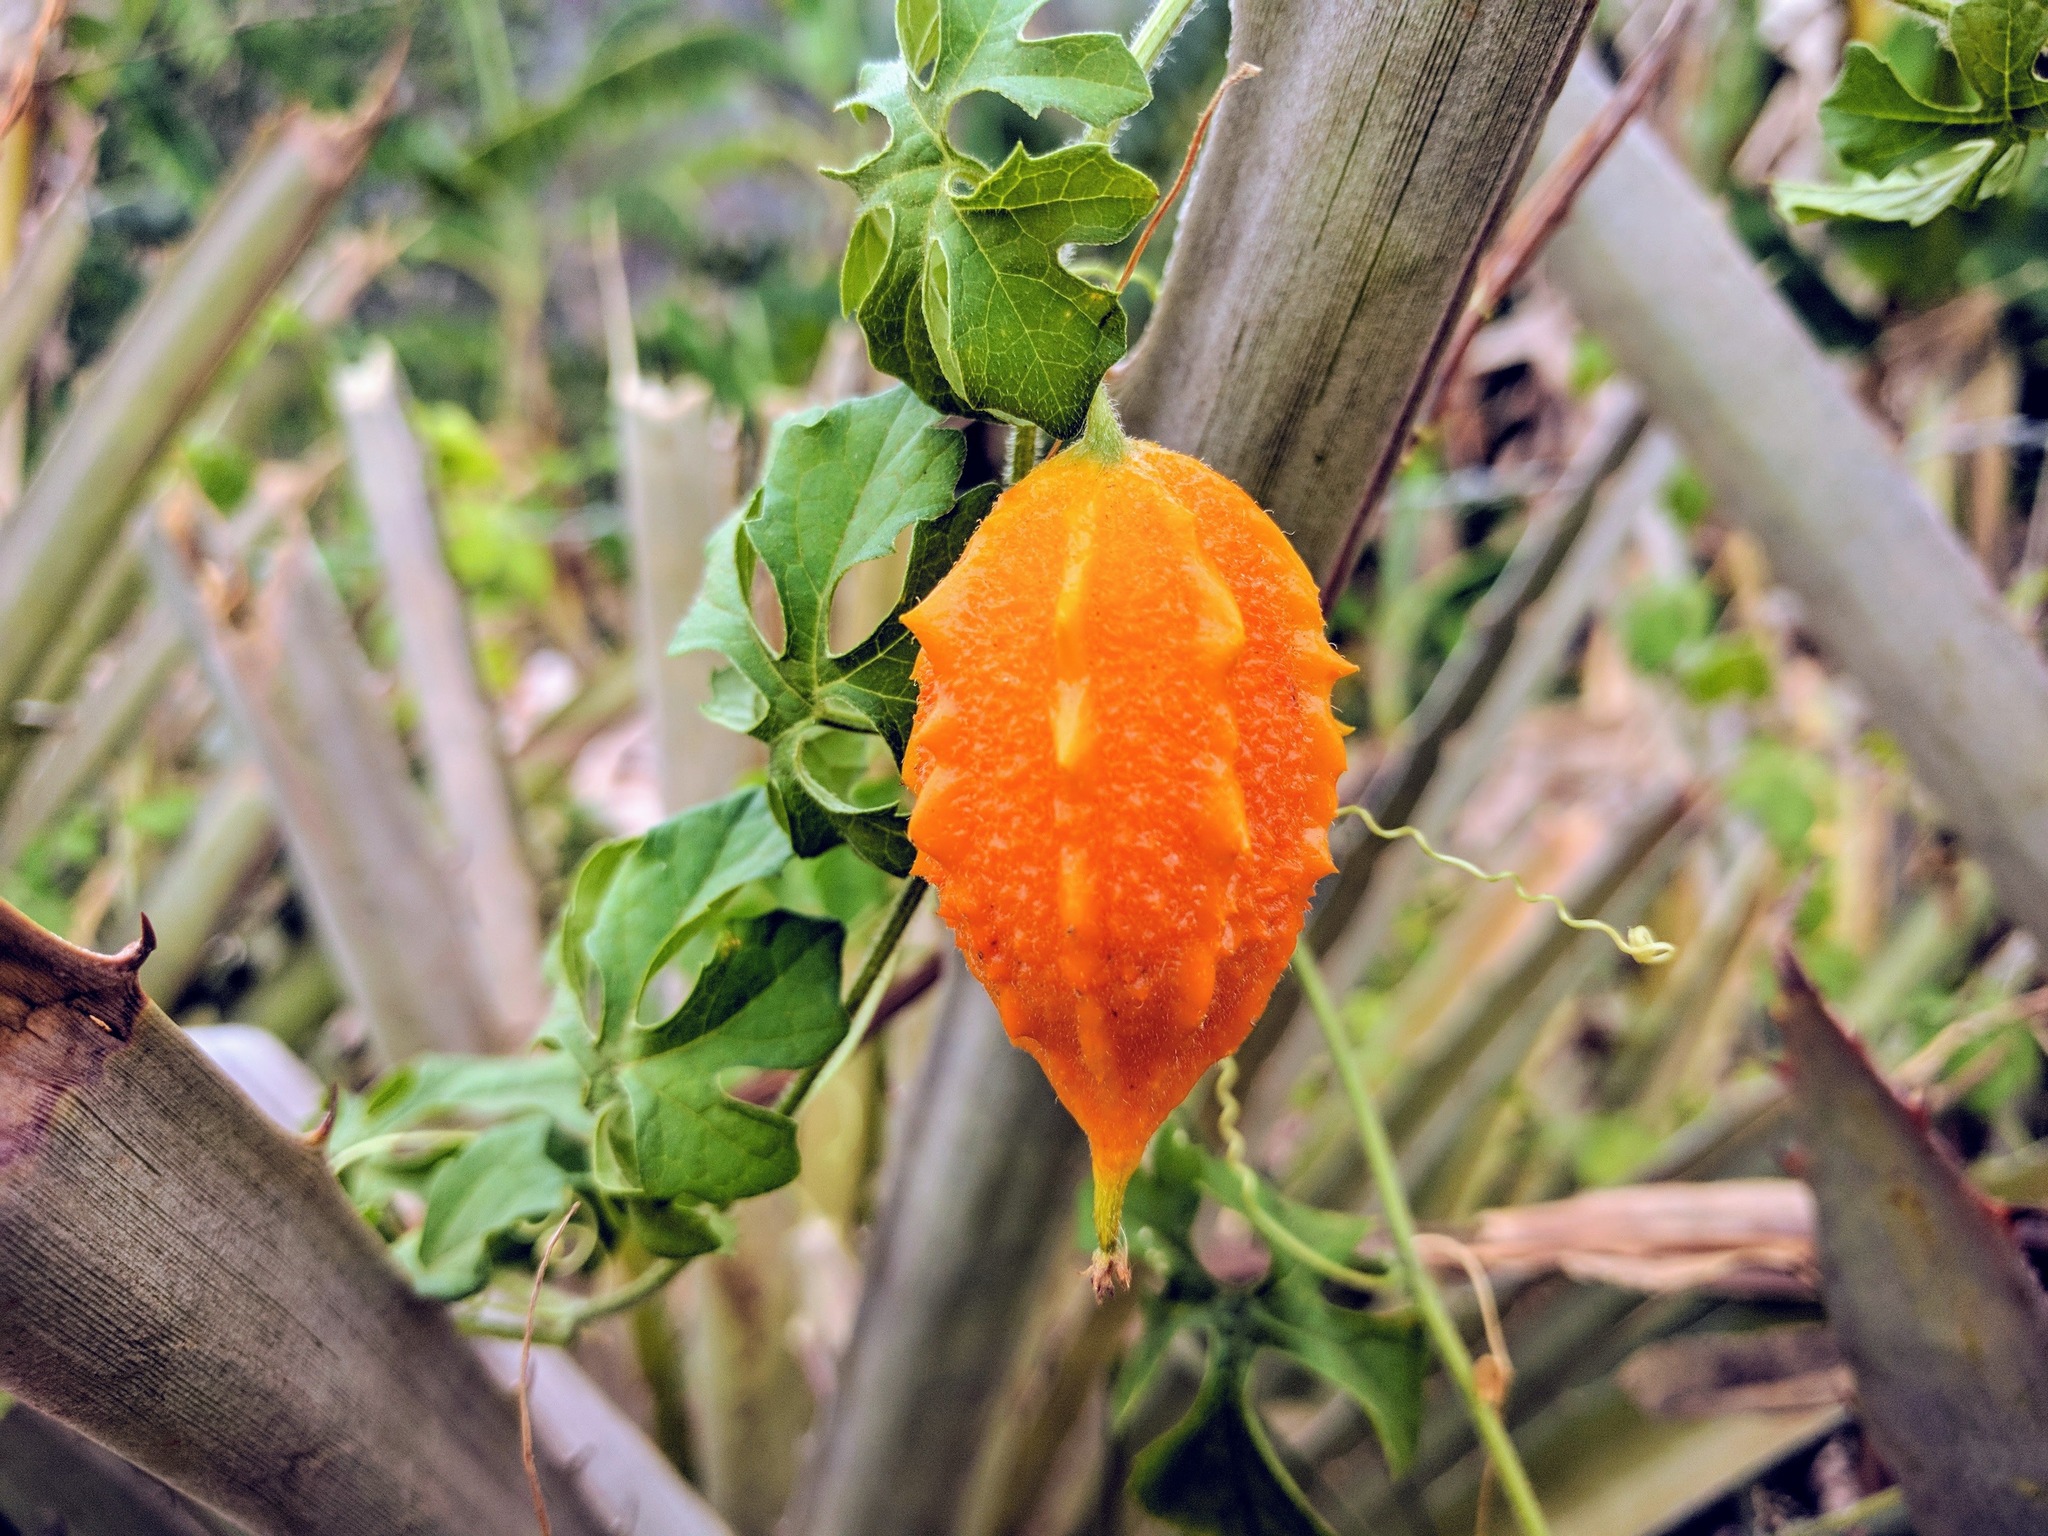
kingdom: Plantae
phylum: Tracheophyta
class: Magnoliopsida
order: Cucurbitales
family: Cucurbitaceae
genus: Momordica
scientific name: Momordica charantia
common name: Balsampear
